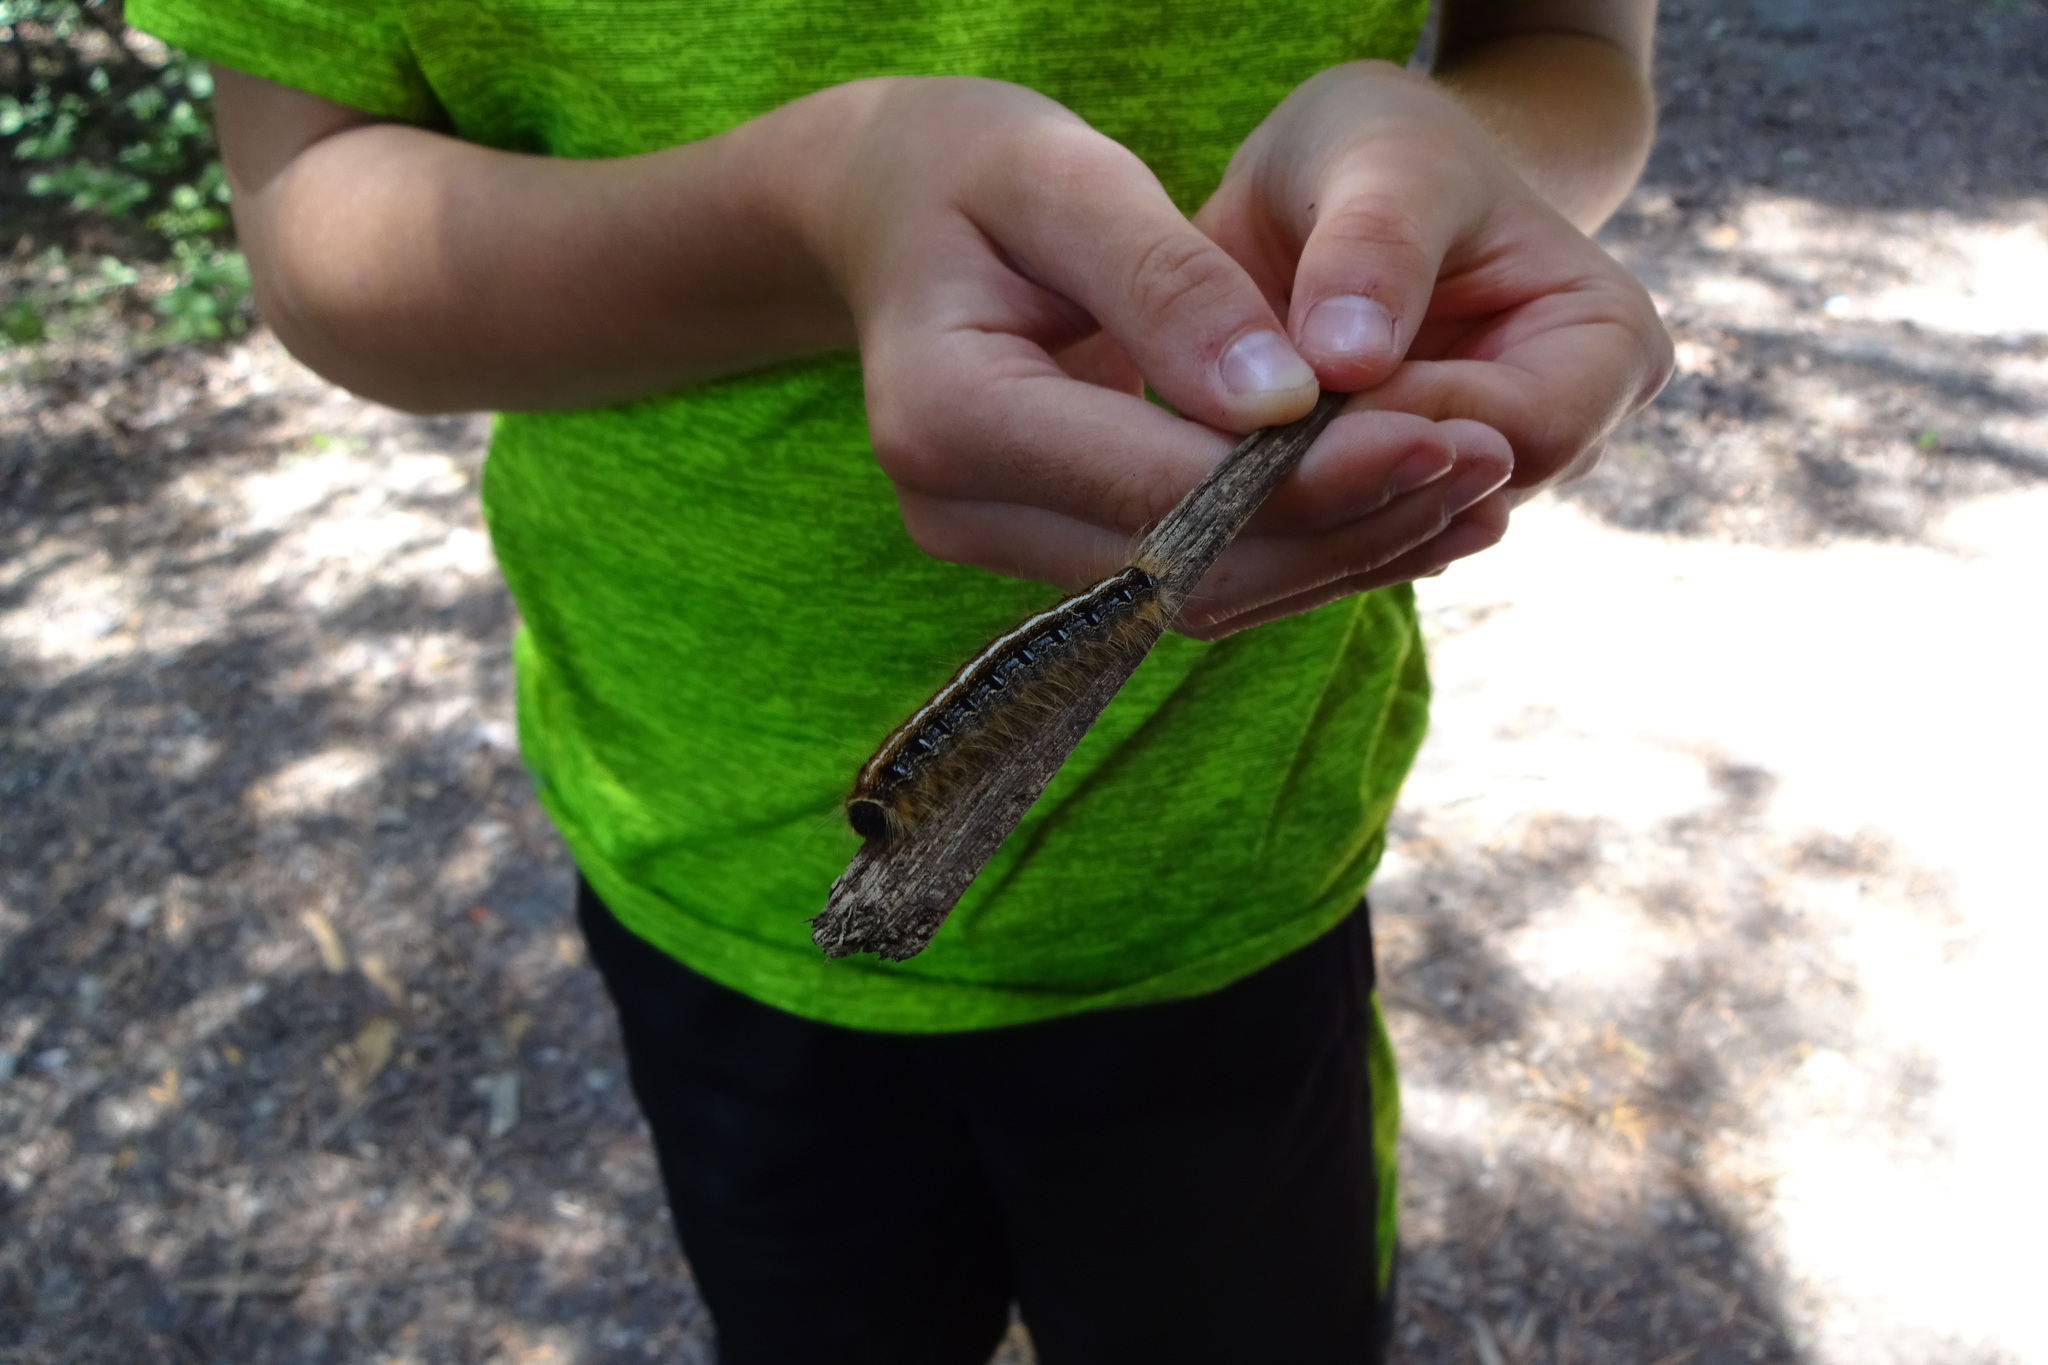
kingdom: Animalia
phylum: Arthropoda
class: Insecta
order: Lepidoptera
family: Lasiocampidae
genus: Malacosoma
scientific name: Malacosoma americana
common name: Eastern tent caterpillar moth
